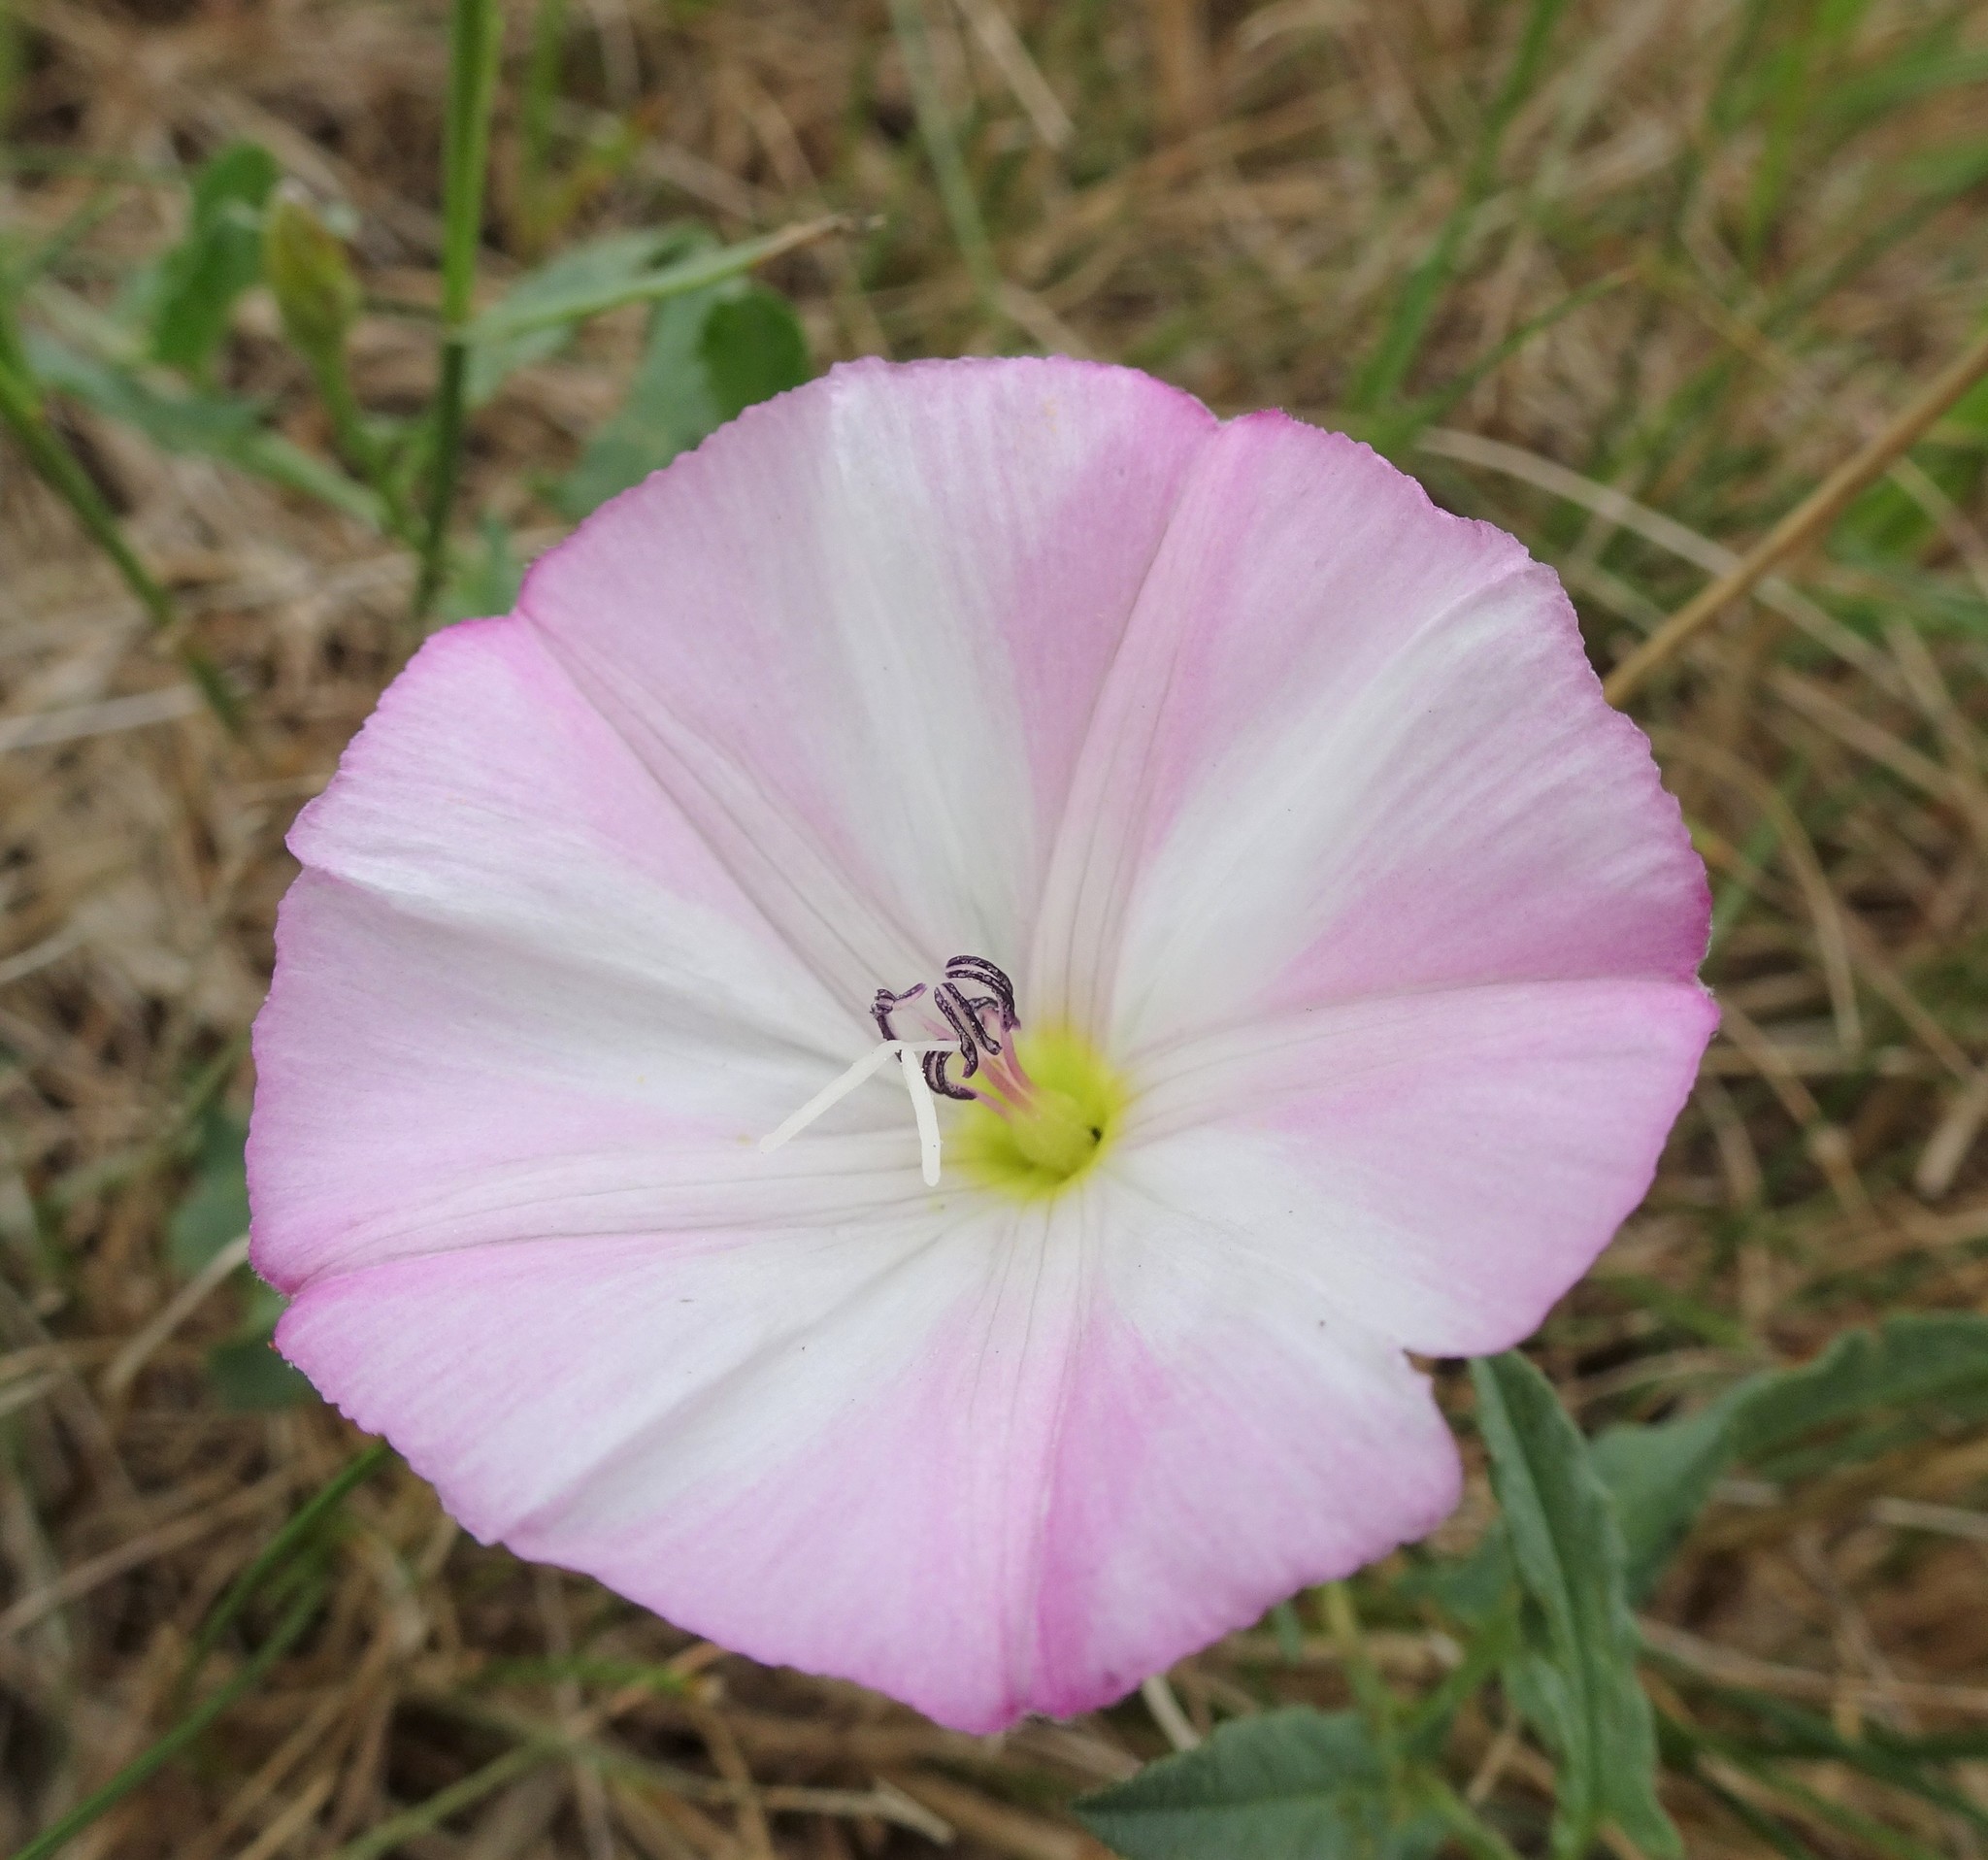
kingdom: Plantae
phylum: Tracheophyta
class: Magnoliopsida
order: Solanales
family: Convolvulaceae
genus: Convolvulus
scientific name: Convolvulus arvensis
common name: Field bindweed
